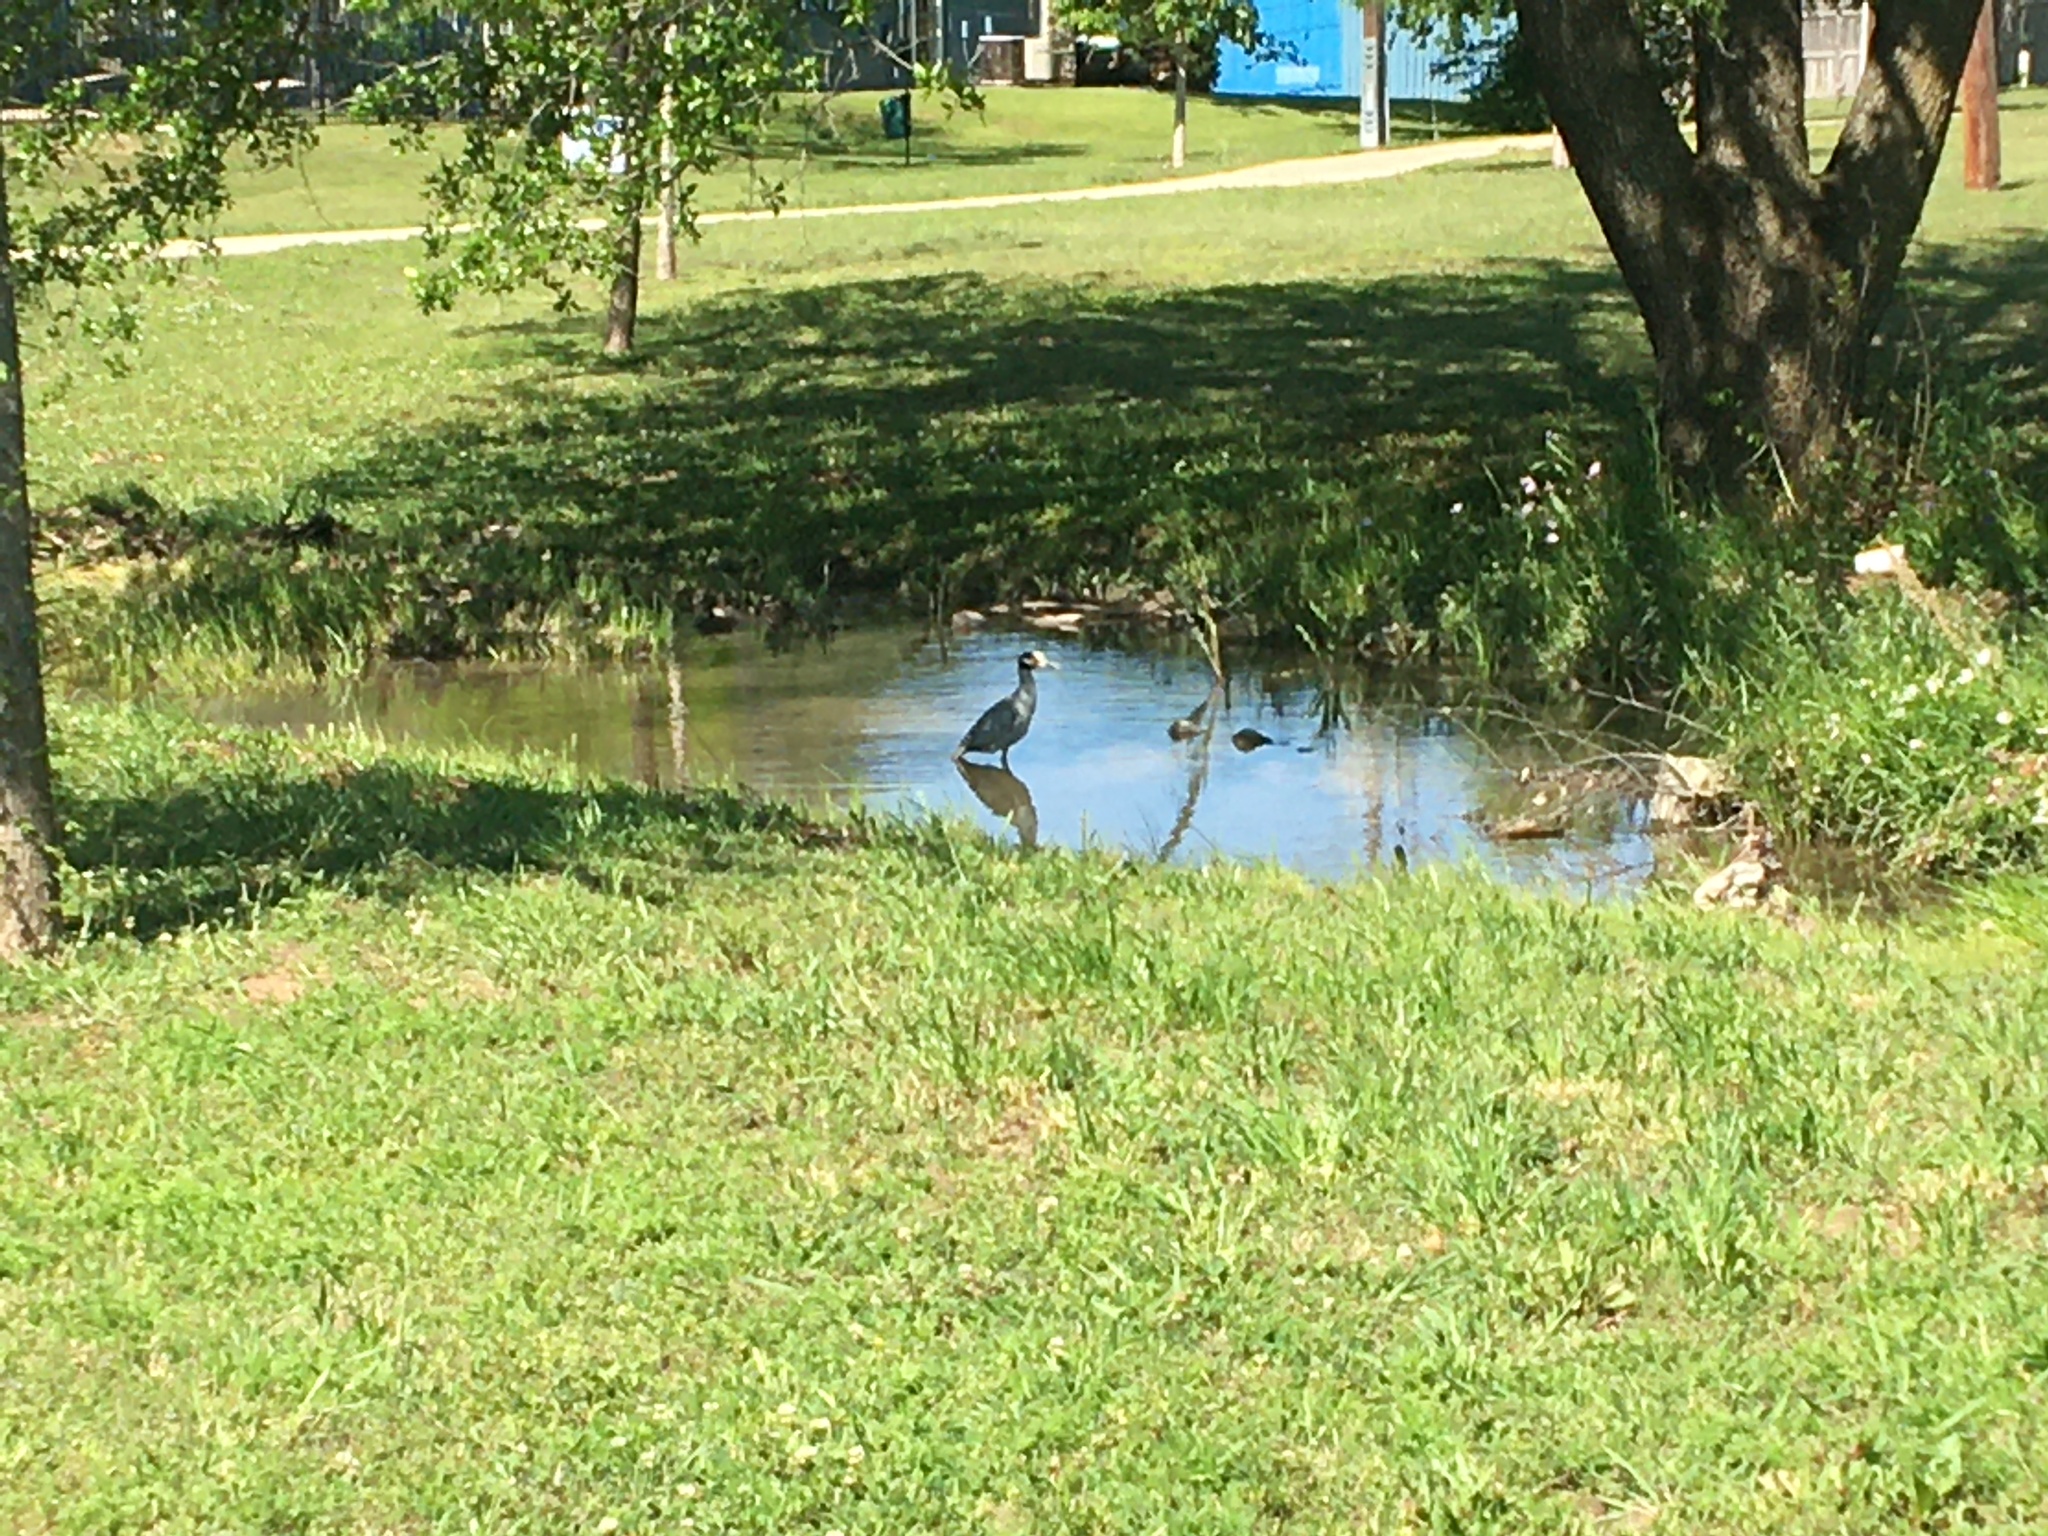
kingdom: Animalia
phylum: Chordata
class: Aves
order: Pelecaniformes
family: Ardeidae
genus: Nyctanassa
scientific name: Nyctanassa violacea
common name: Yellow-crowned night heron
